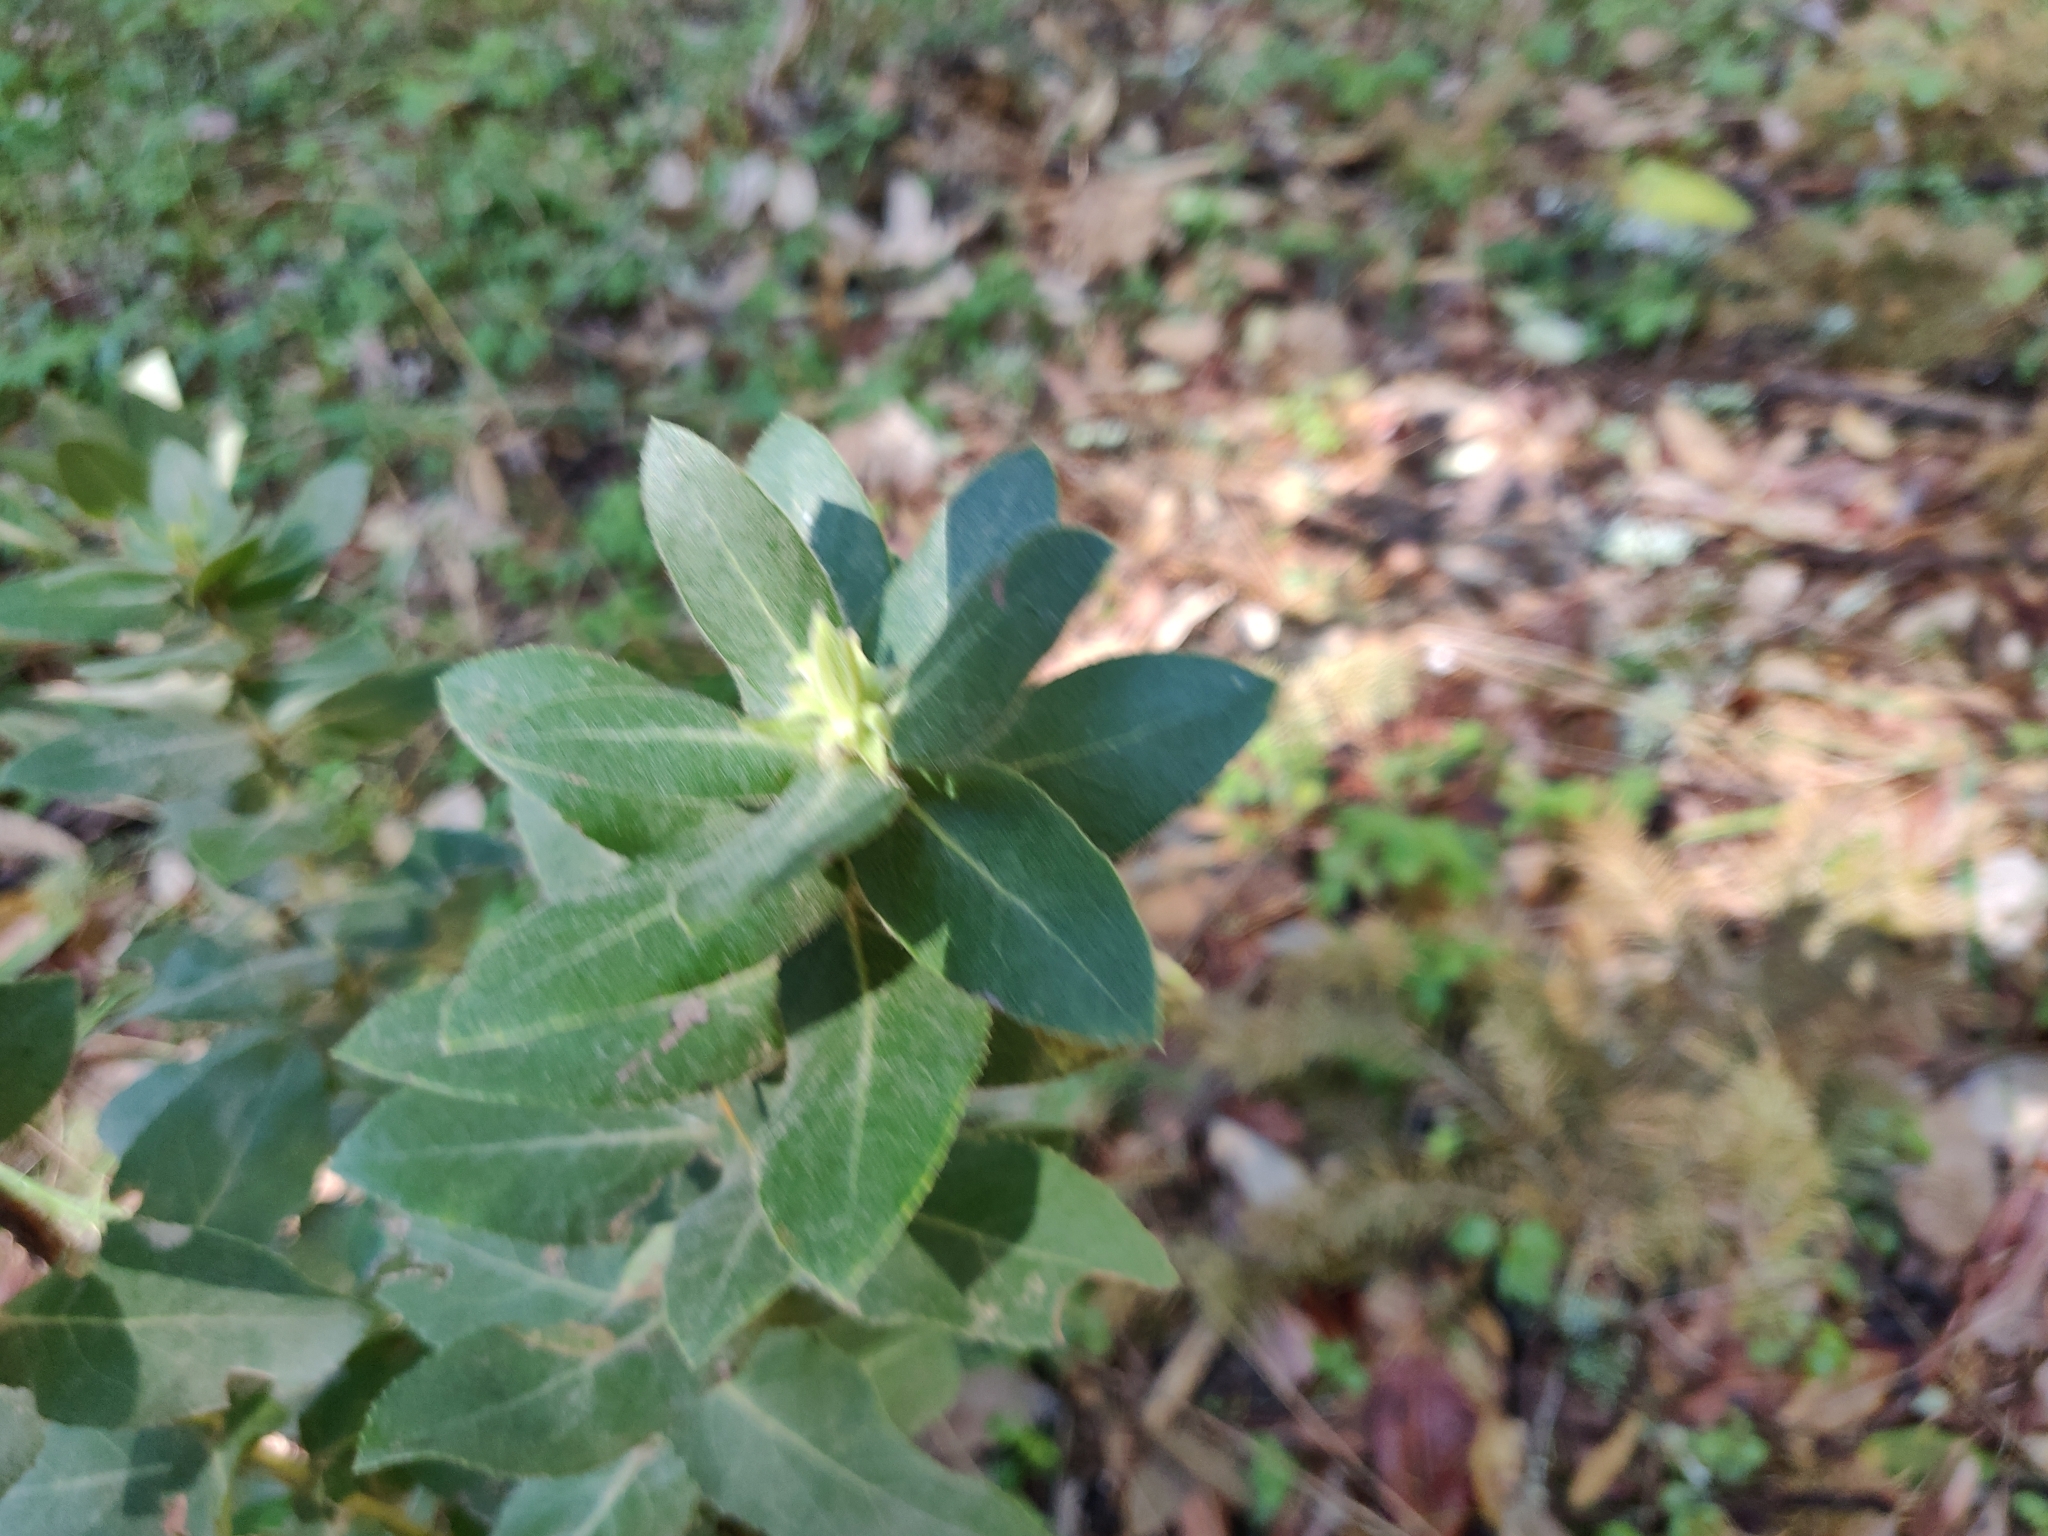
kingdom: Plantae
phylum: Tracheophyta
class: Magnoliopsida
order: Ericales
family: Ericaceae
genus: Arctostaphylos
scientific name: Arctostaphylos regismontana
